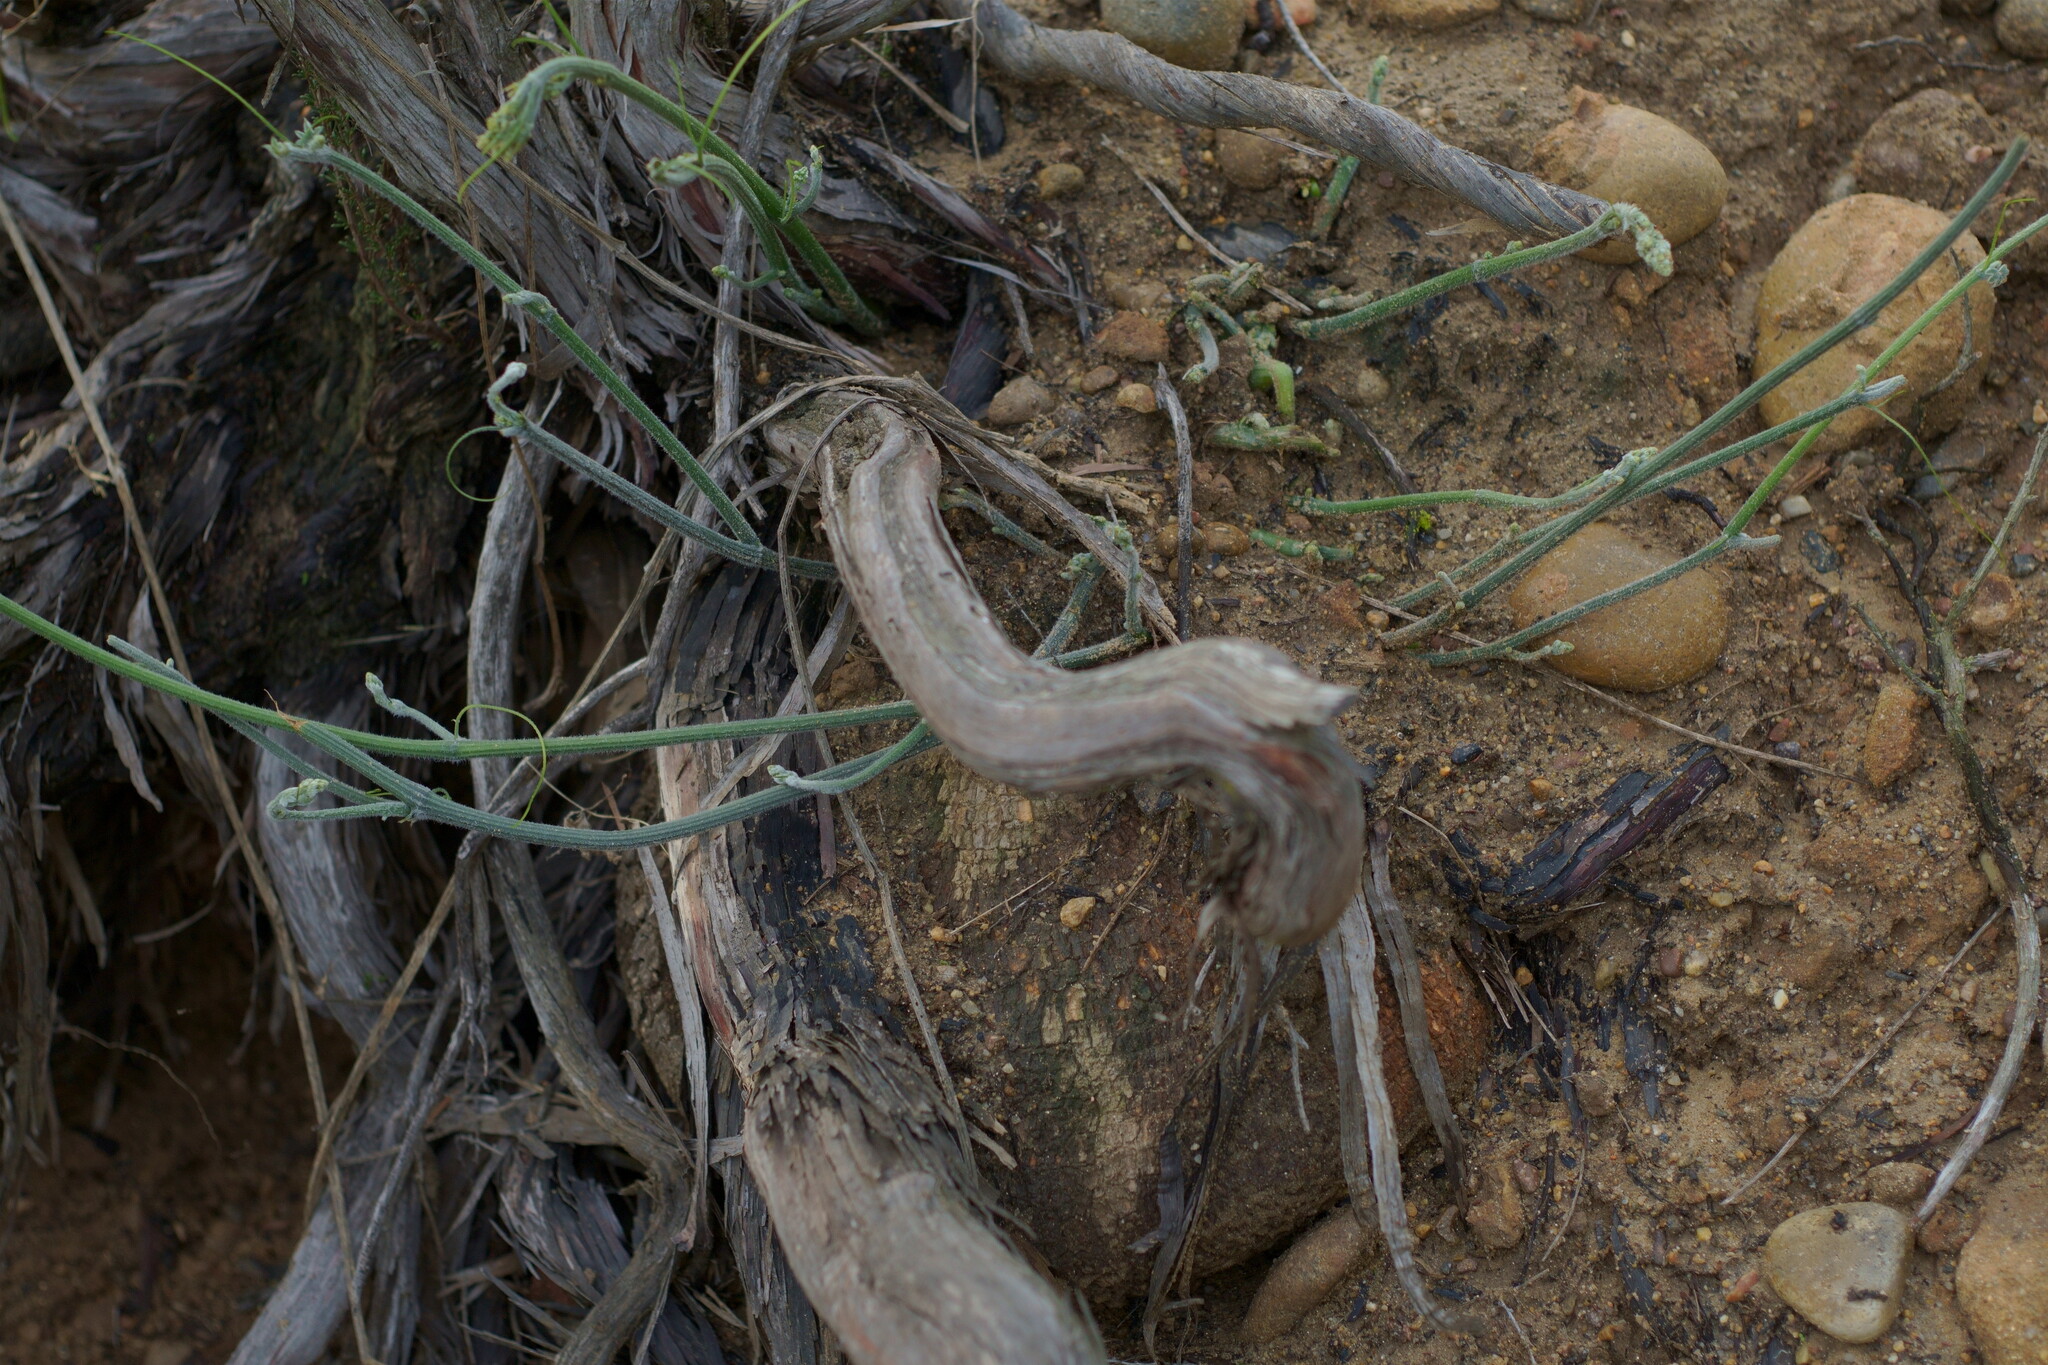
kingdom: Plantae
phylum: Tracheophyta
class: Magnoliopsida
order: Cucurbitales
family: Cucurbitaceae
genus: Marah
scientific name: Marah macrocarpa
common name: Cucamonga manroot
